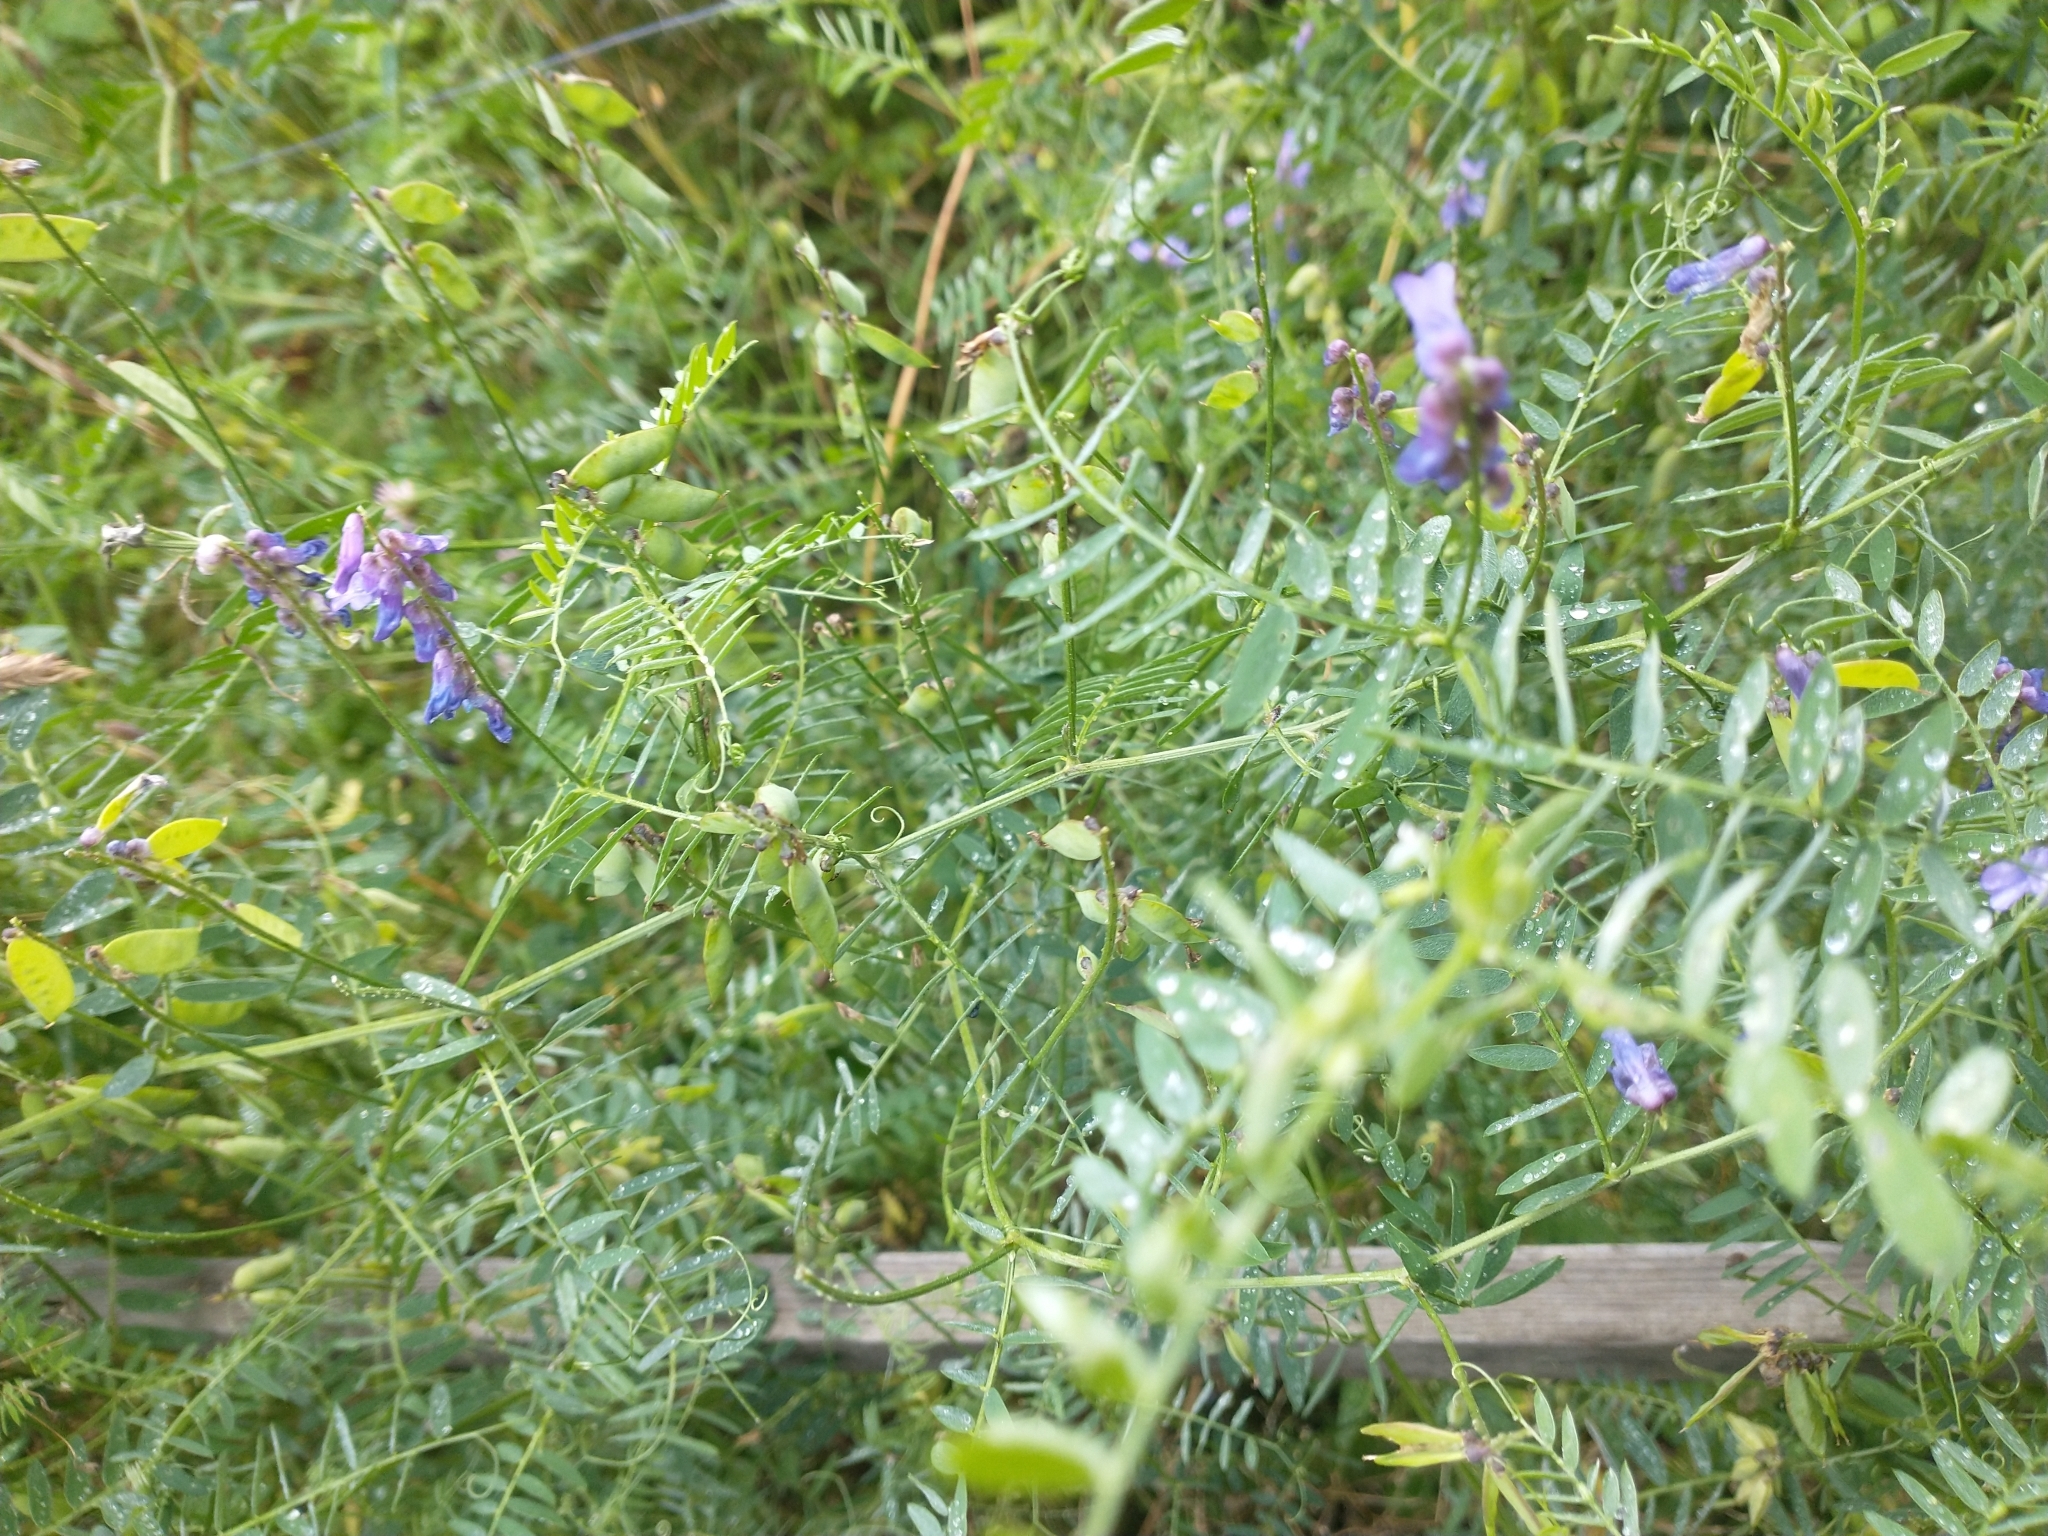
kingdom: Plantae
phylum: Tracheophyta
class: Magnoliopsida
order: Fabales
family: Fabaceae
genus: Vicia
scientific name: Vicia cracca
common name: Bird vetch
